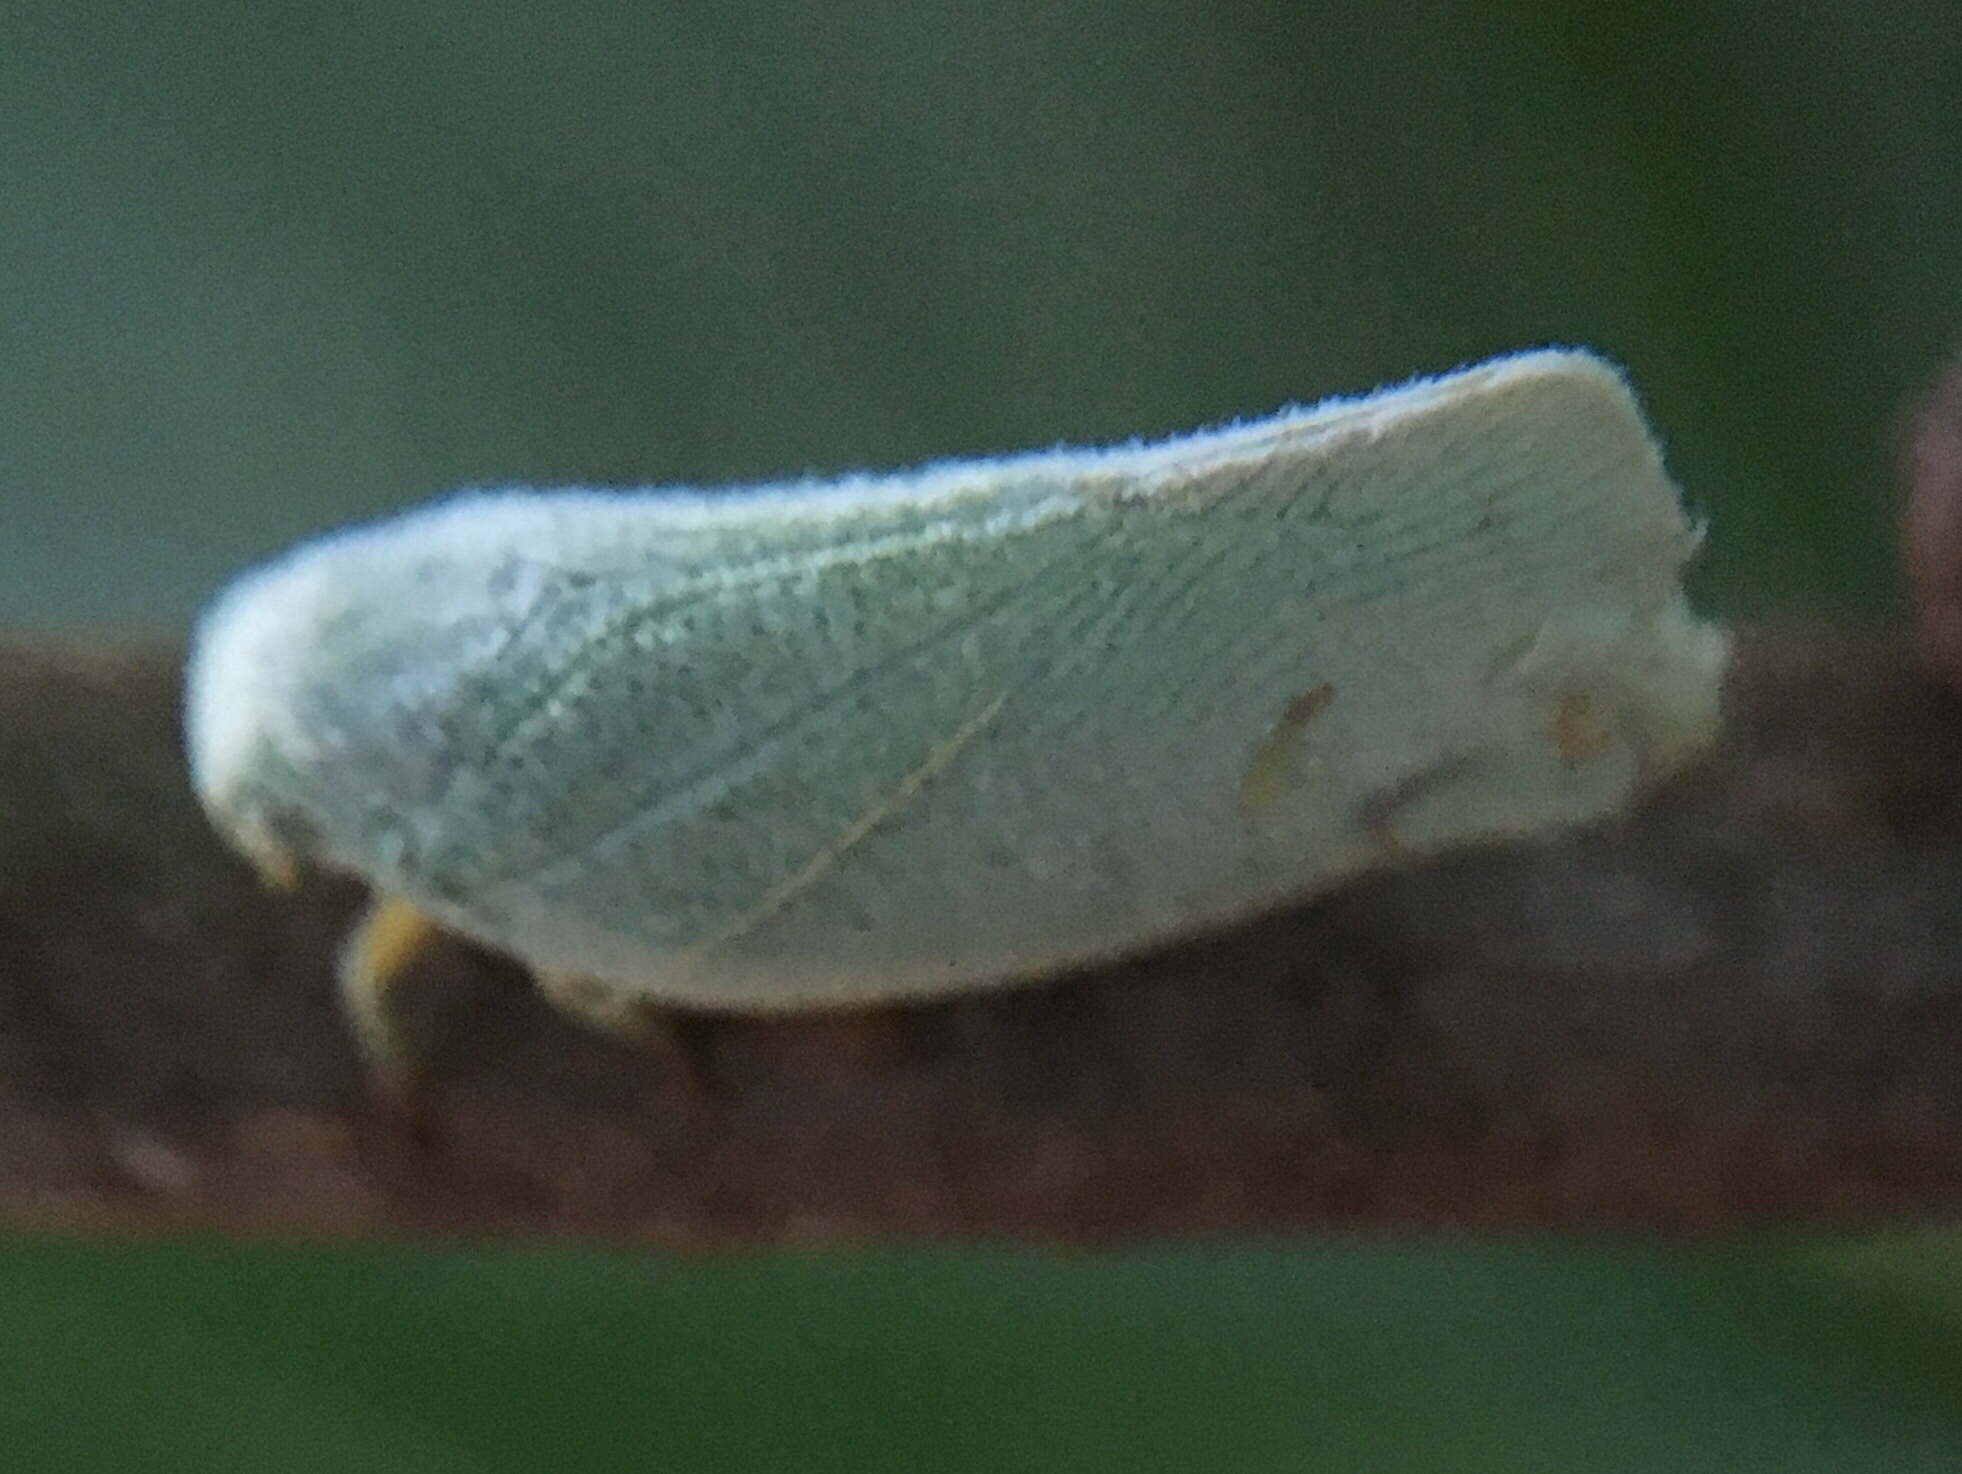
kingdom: Animalia
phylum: Arthropoda
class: Insecta
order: Hemiptera
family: Flatidae
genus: Flatormenis
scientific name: Flatormenis proxima
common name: Northern flatid planthopper
